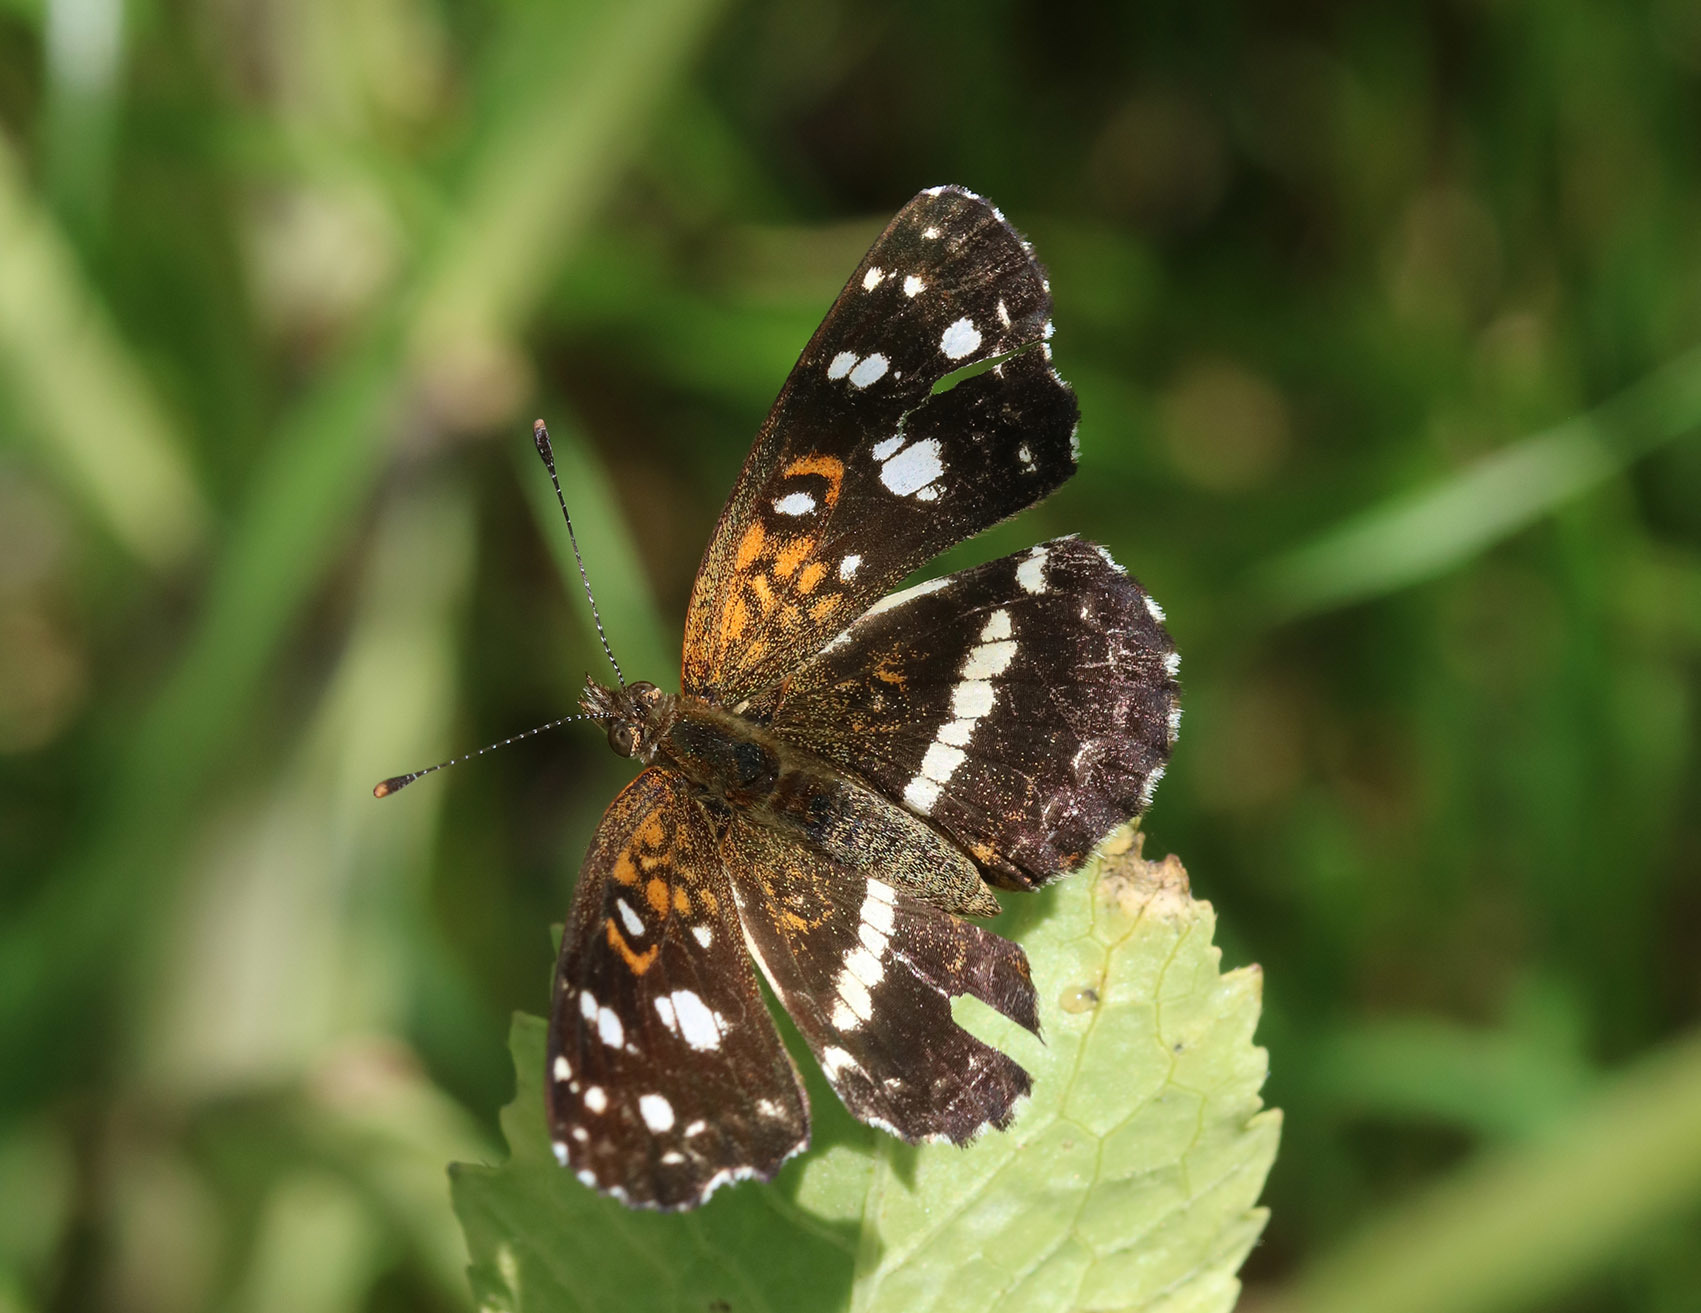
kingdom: Animalia
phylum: Arthropoda
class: Insecta
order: Lepidoptera
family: Nymphalidae
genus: Ortilia
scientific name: Ortilia ithra
